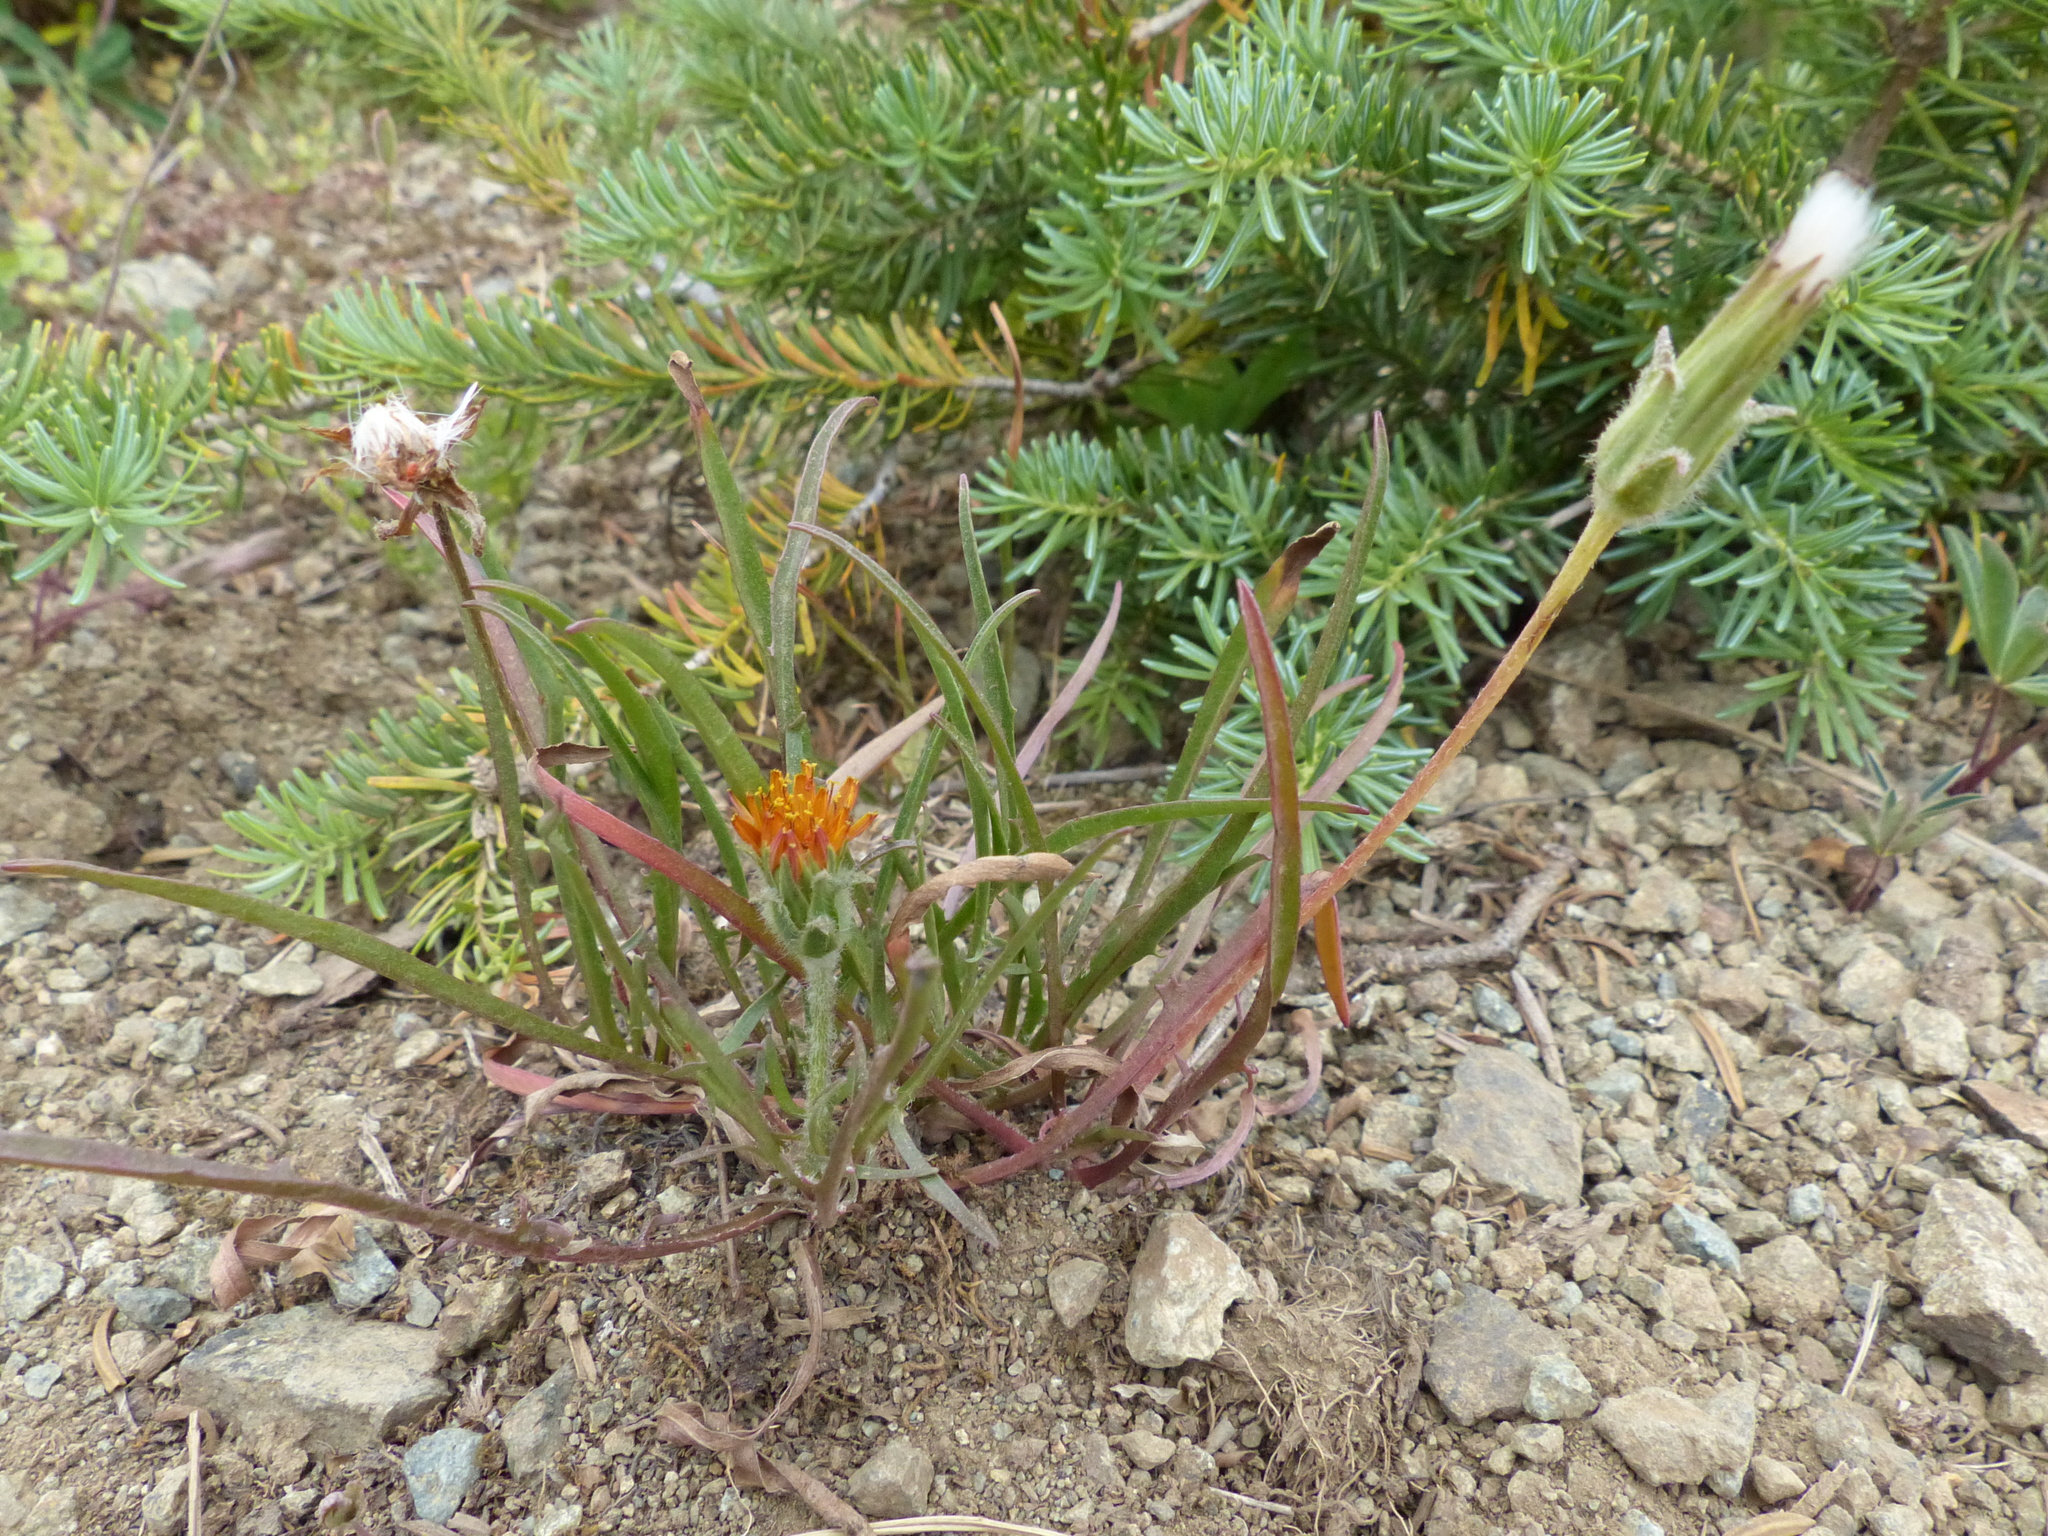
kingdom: Plantae
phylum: Tracheophyta
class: Magnoliopsida
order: Asterales
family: Asteraceae
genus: Agoseris
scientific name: Agoseris aurantiaca
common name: Mountain agoseris
